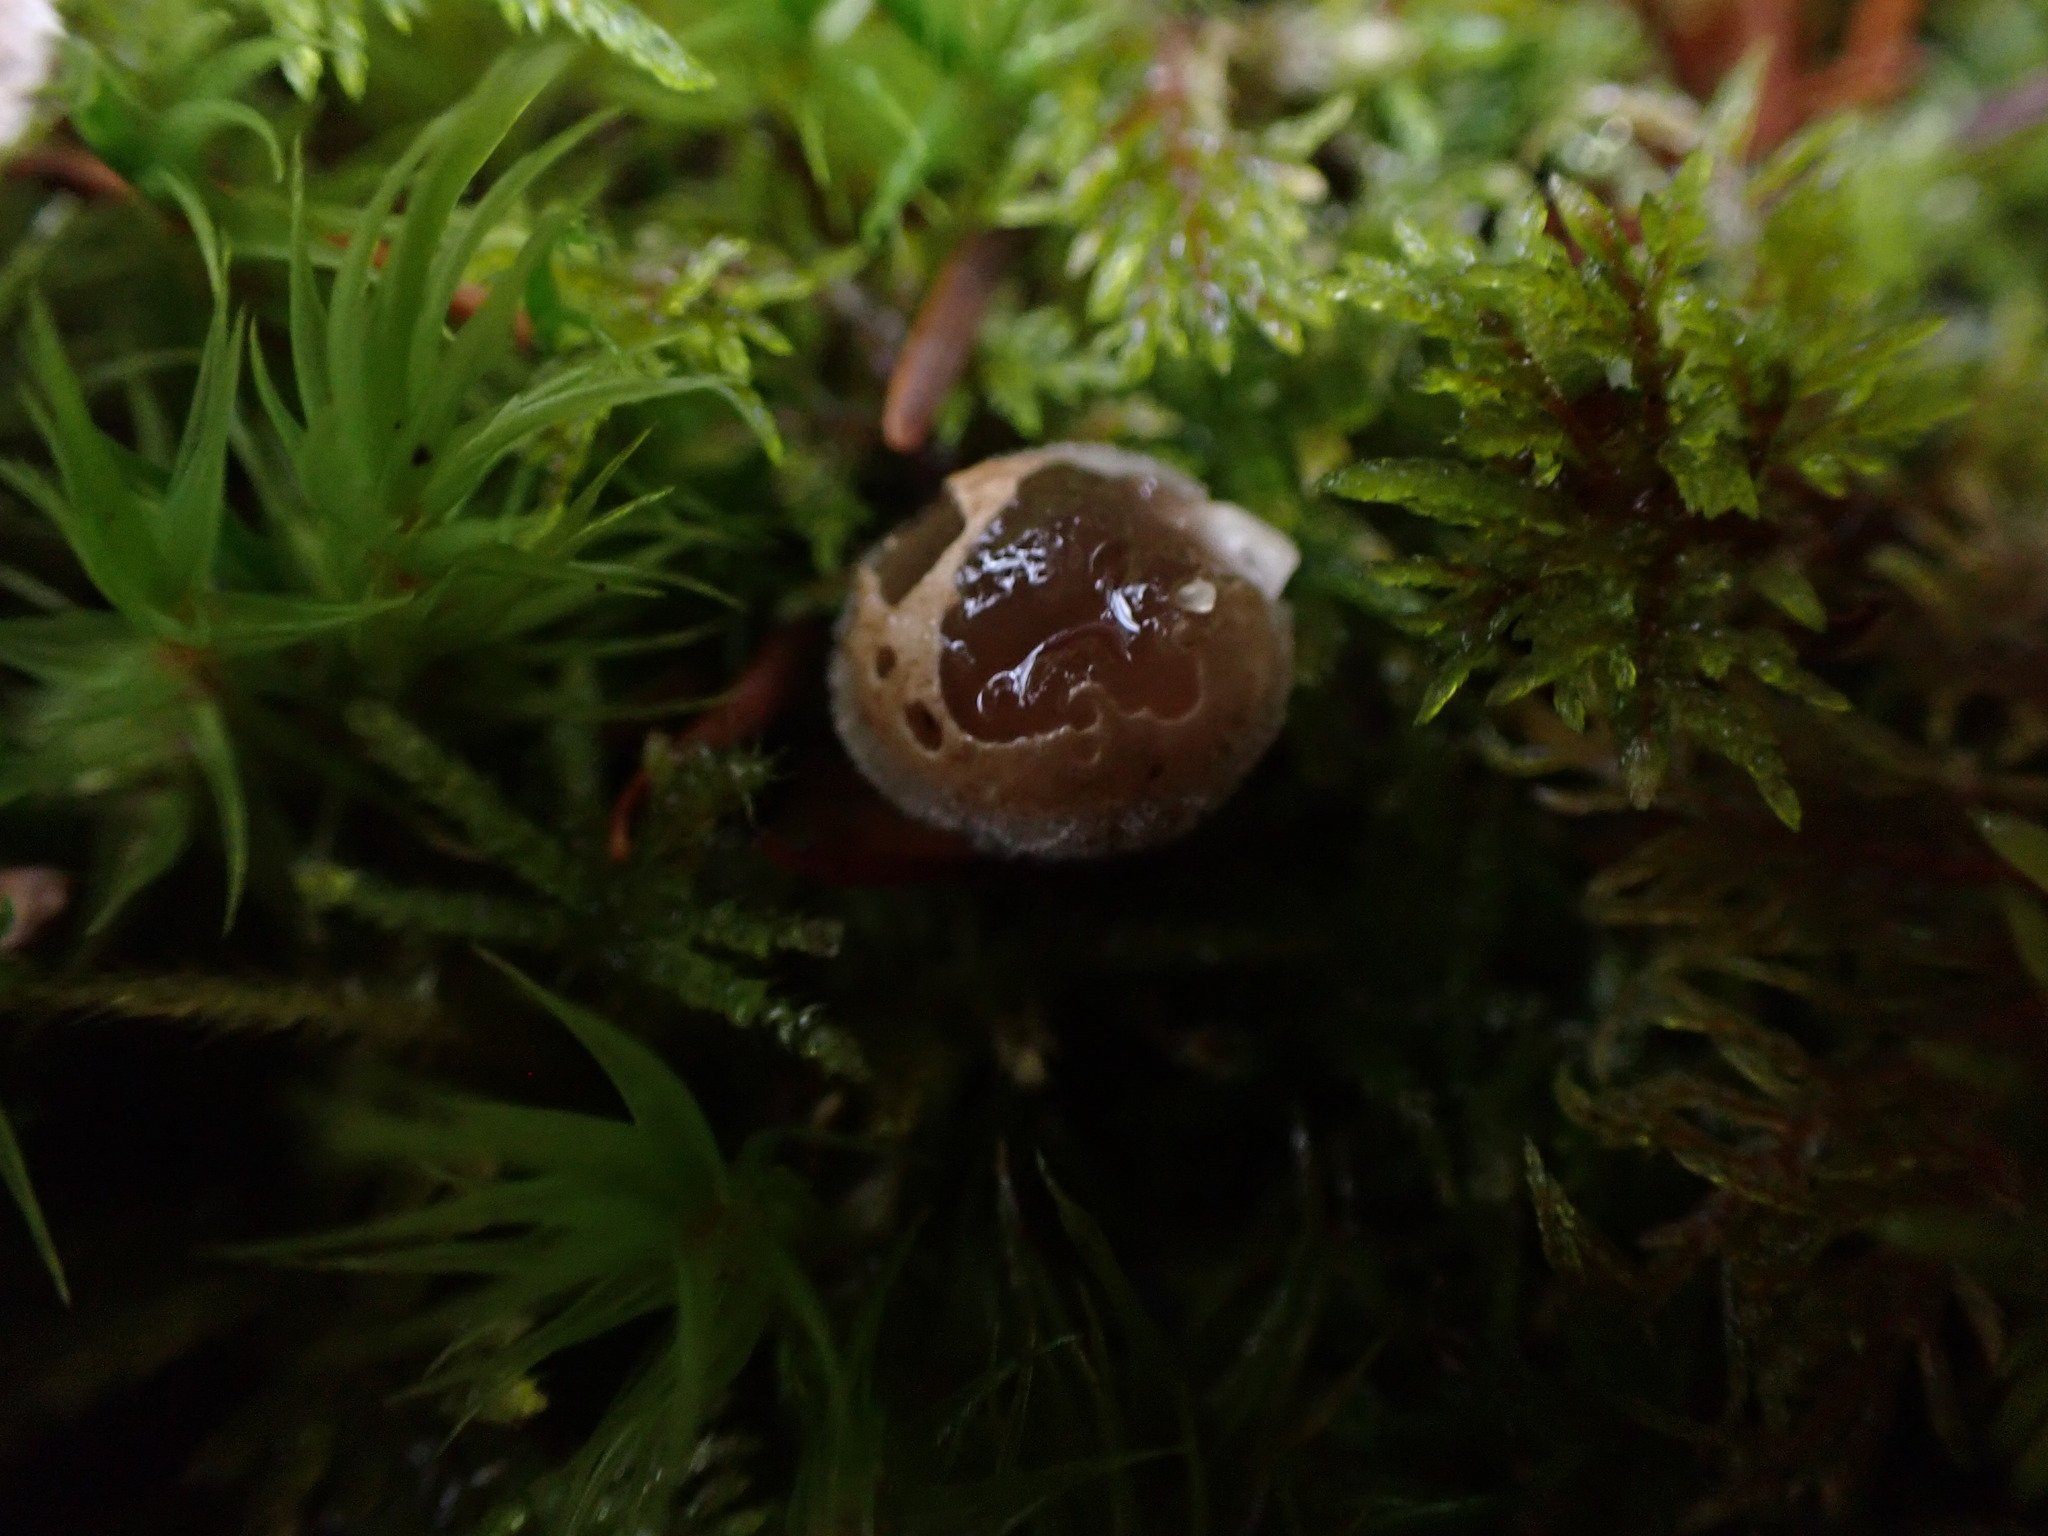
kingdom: Fungi
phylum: Basidiomycota
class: Agaricomycetes
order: Agaricales
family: Agaricaceae
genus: Nidula
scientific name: Nidula candida
